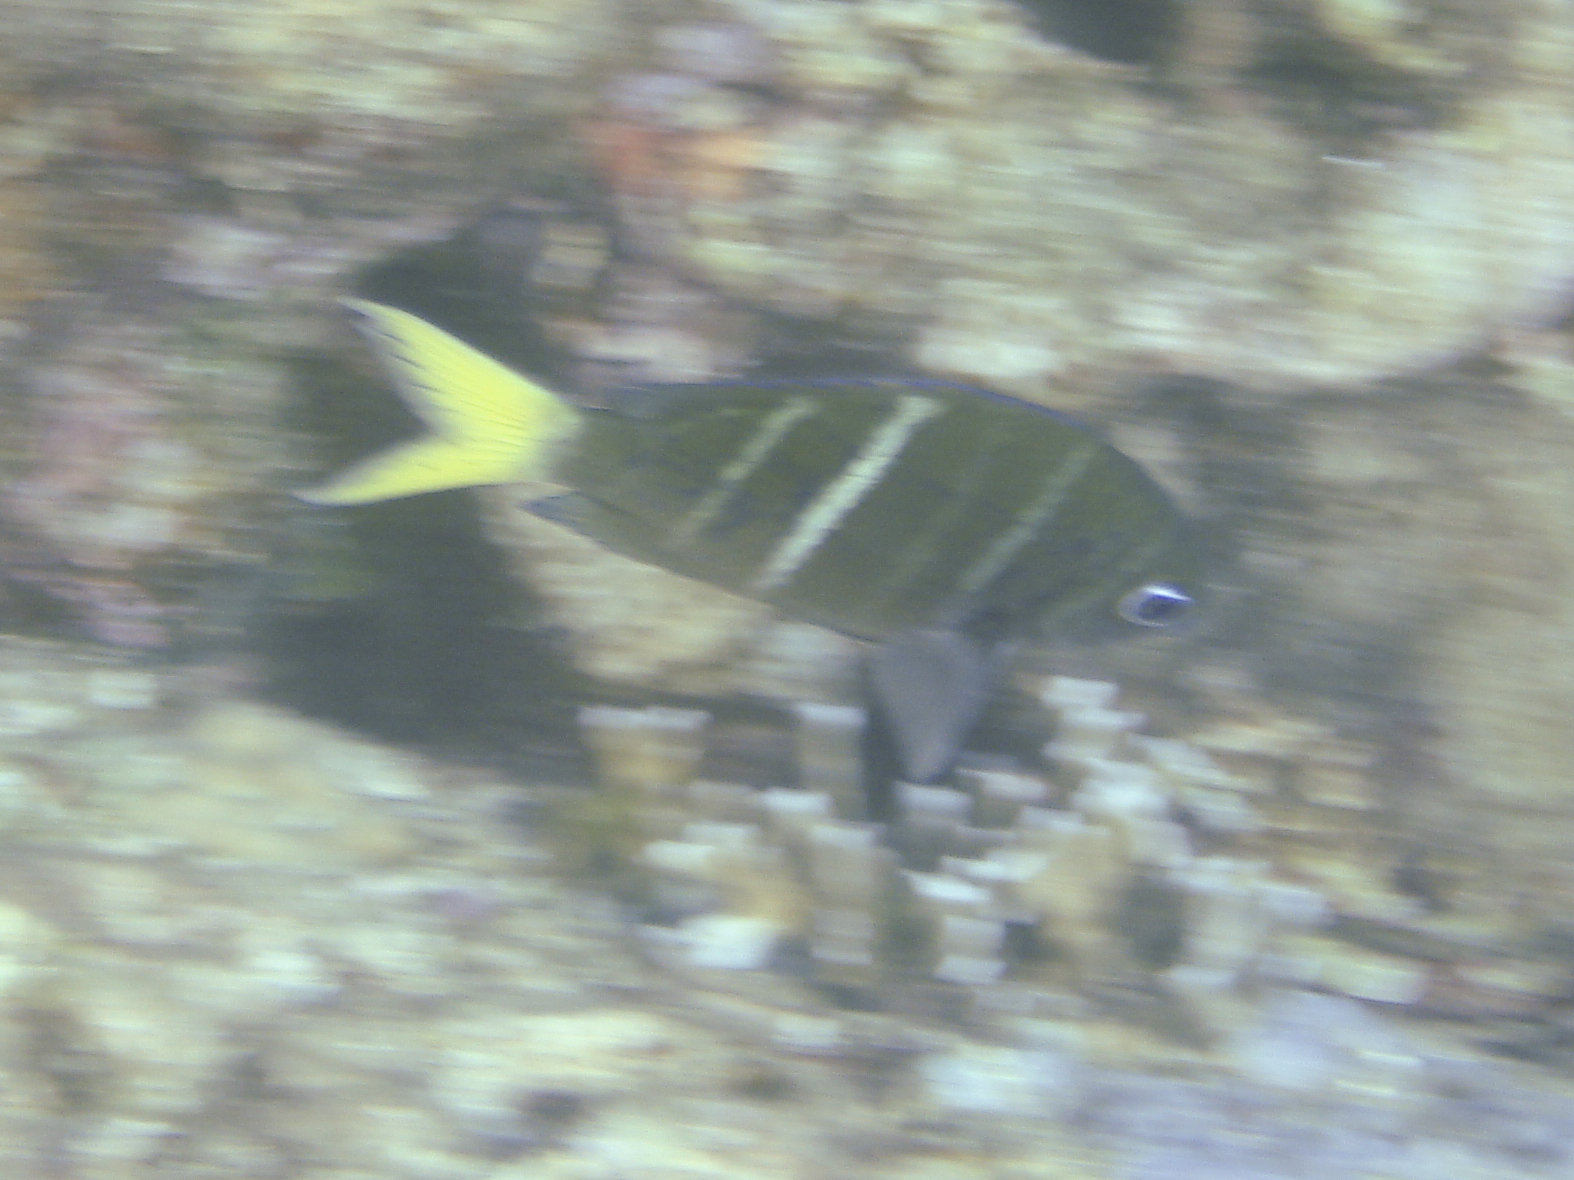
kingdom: Animalia
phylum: Chordata
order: Perciformes
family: Pomacentridae
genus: Abudefduf
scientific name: Abudefduf notatus
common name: Yellow-tail sergeant
